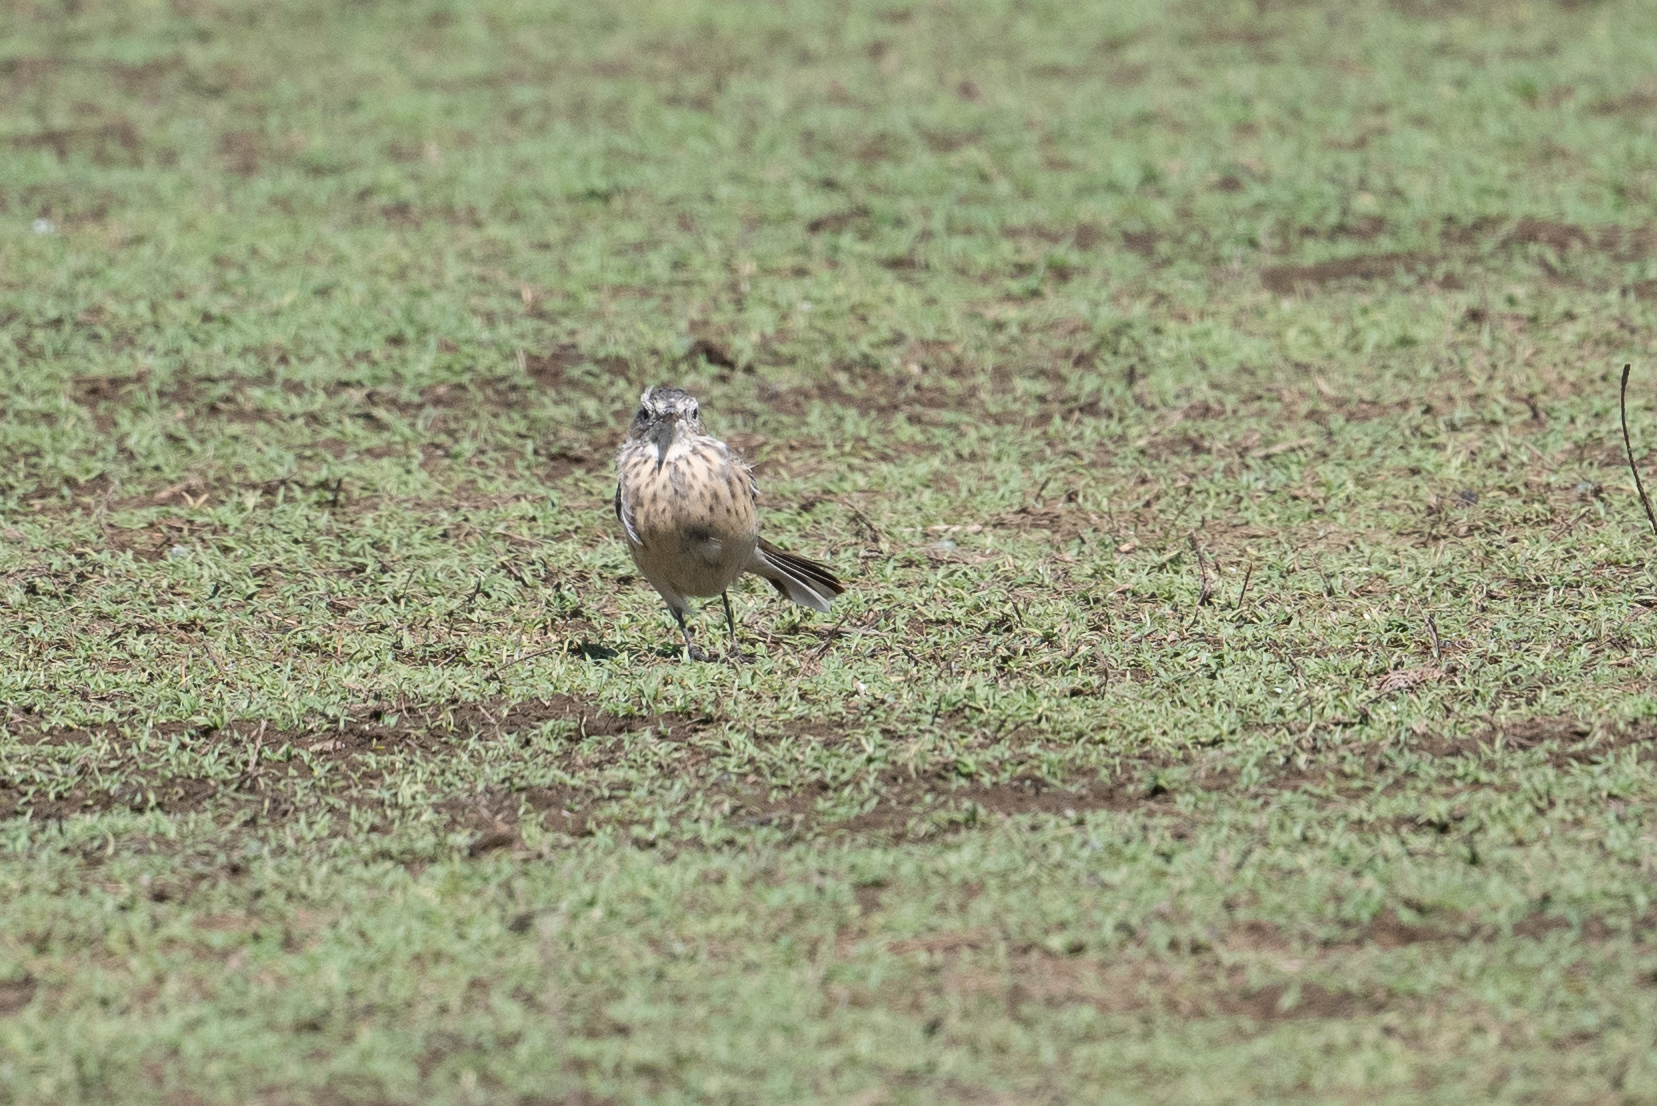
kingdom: Animalia
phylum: Chordata
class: Aves
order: Passeriformes
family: Motacillidae
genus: Anthus
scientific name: Anthus rubescens
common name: Buff-bellied pipit
